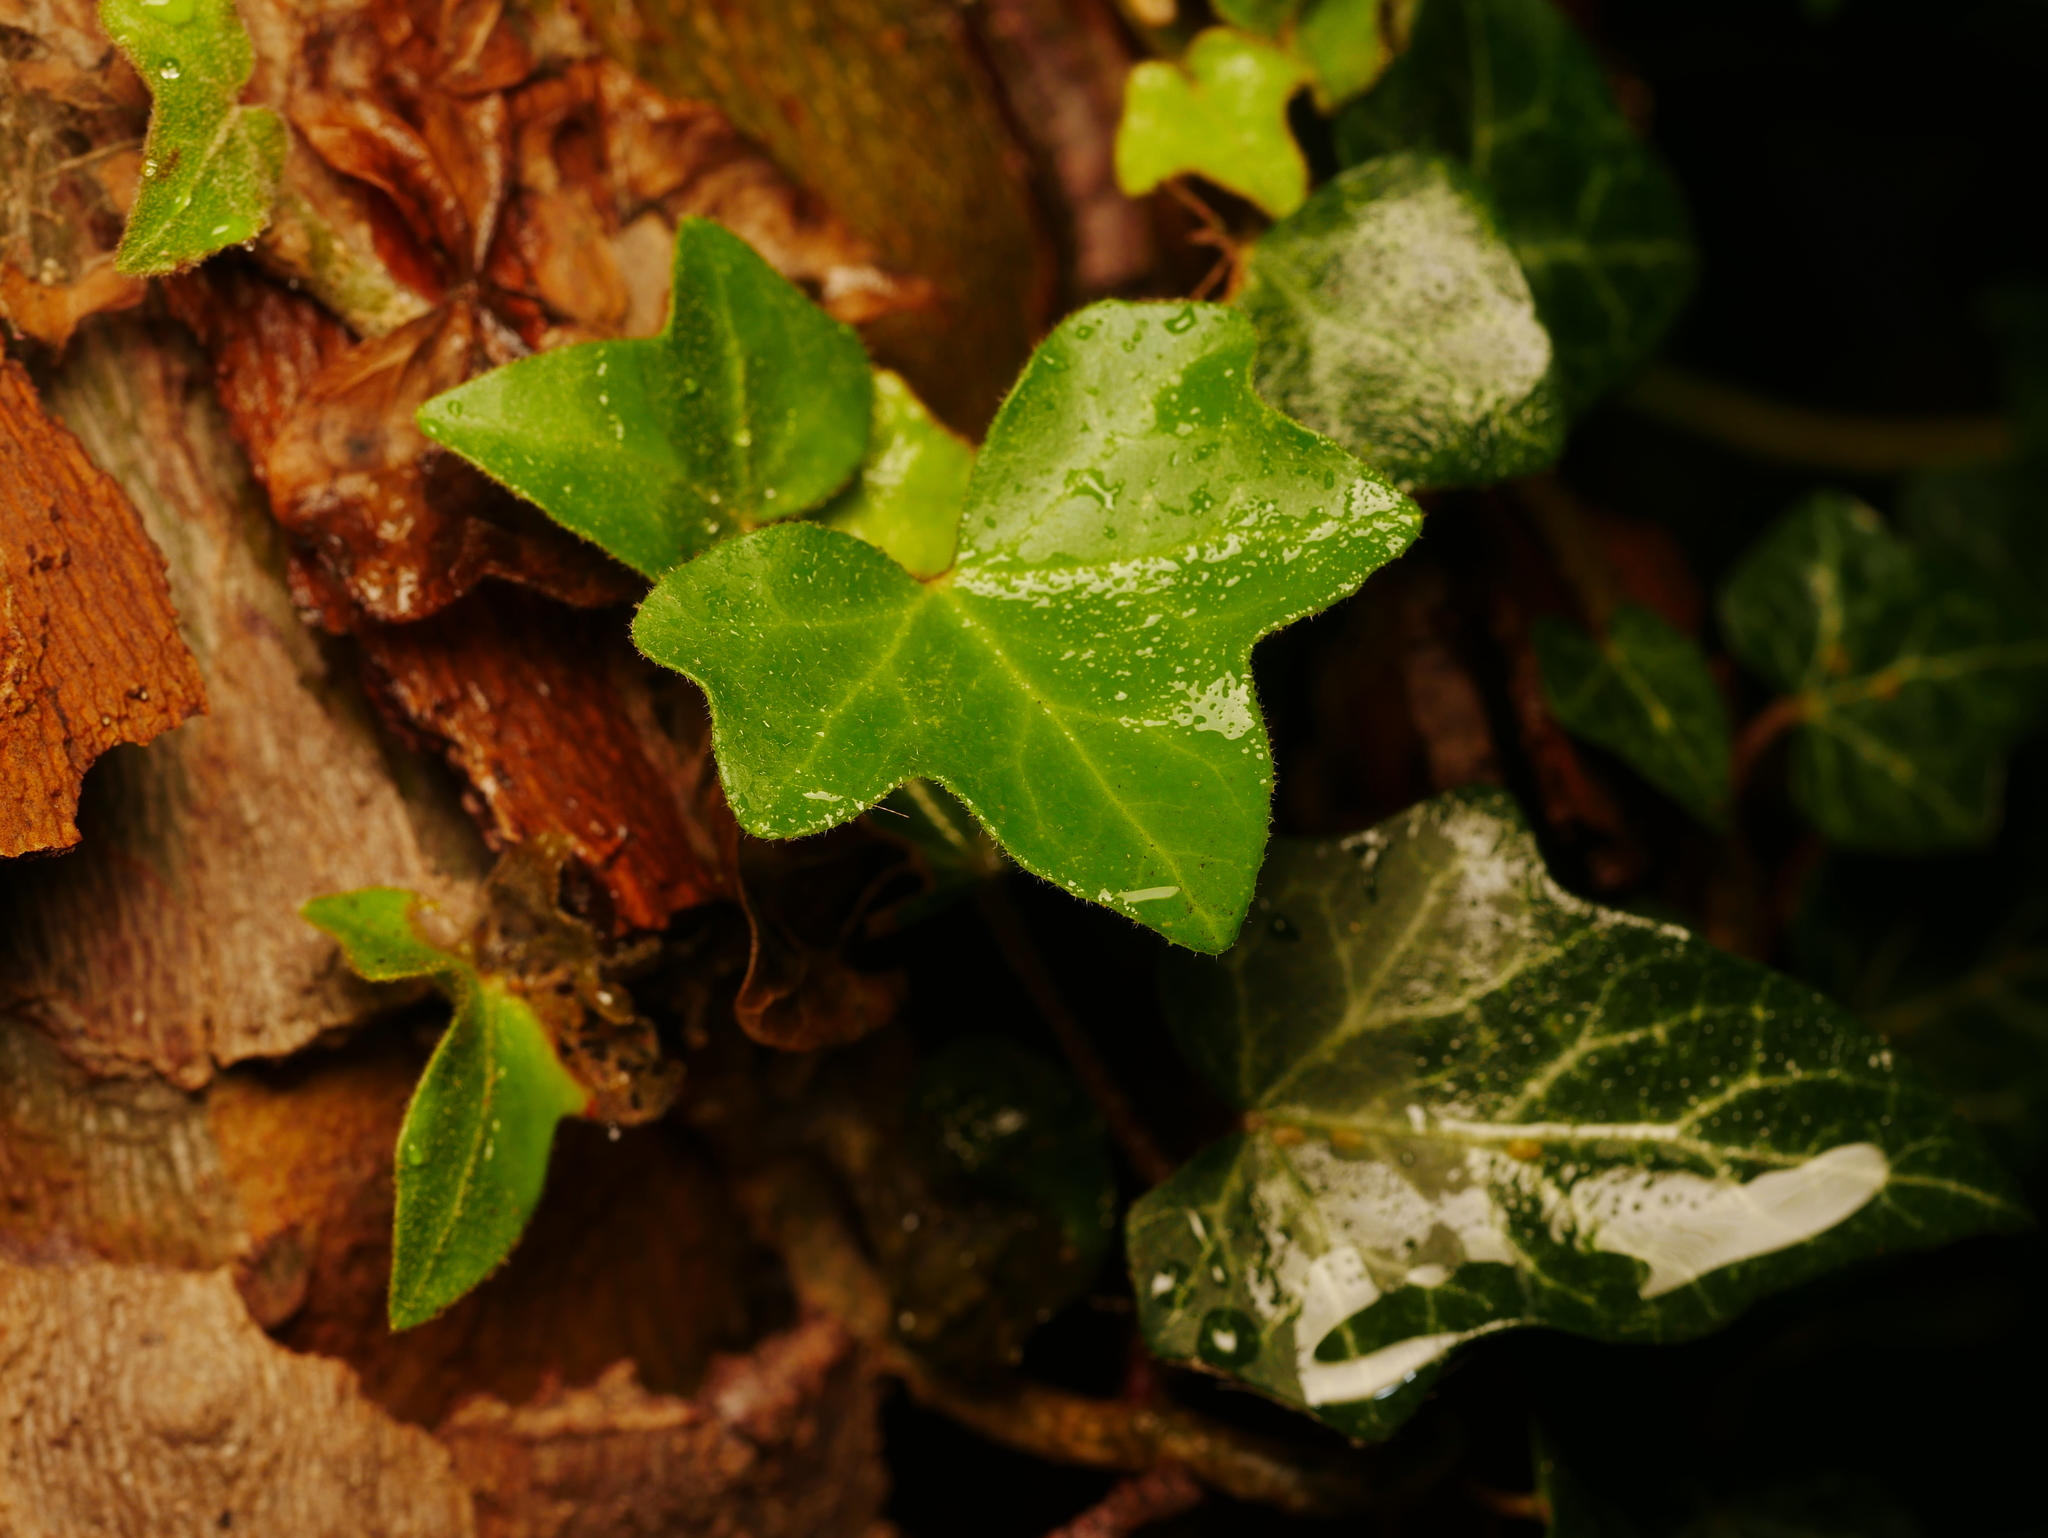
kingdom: Plantae
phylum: Tracheophyta
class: Magnoliopsida
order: Apiales
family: Araliaceae
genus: Hedera
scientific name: Hedera helix
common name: Ivy
